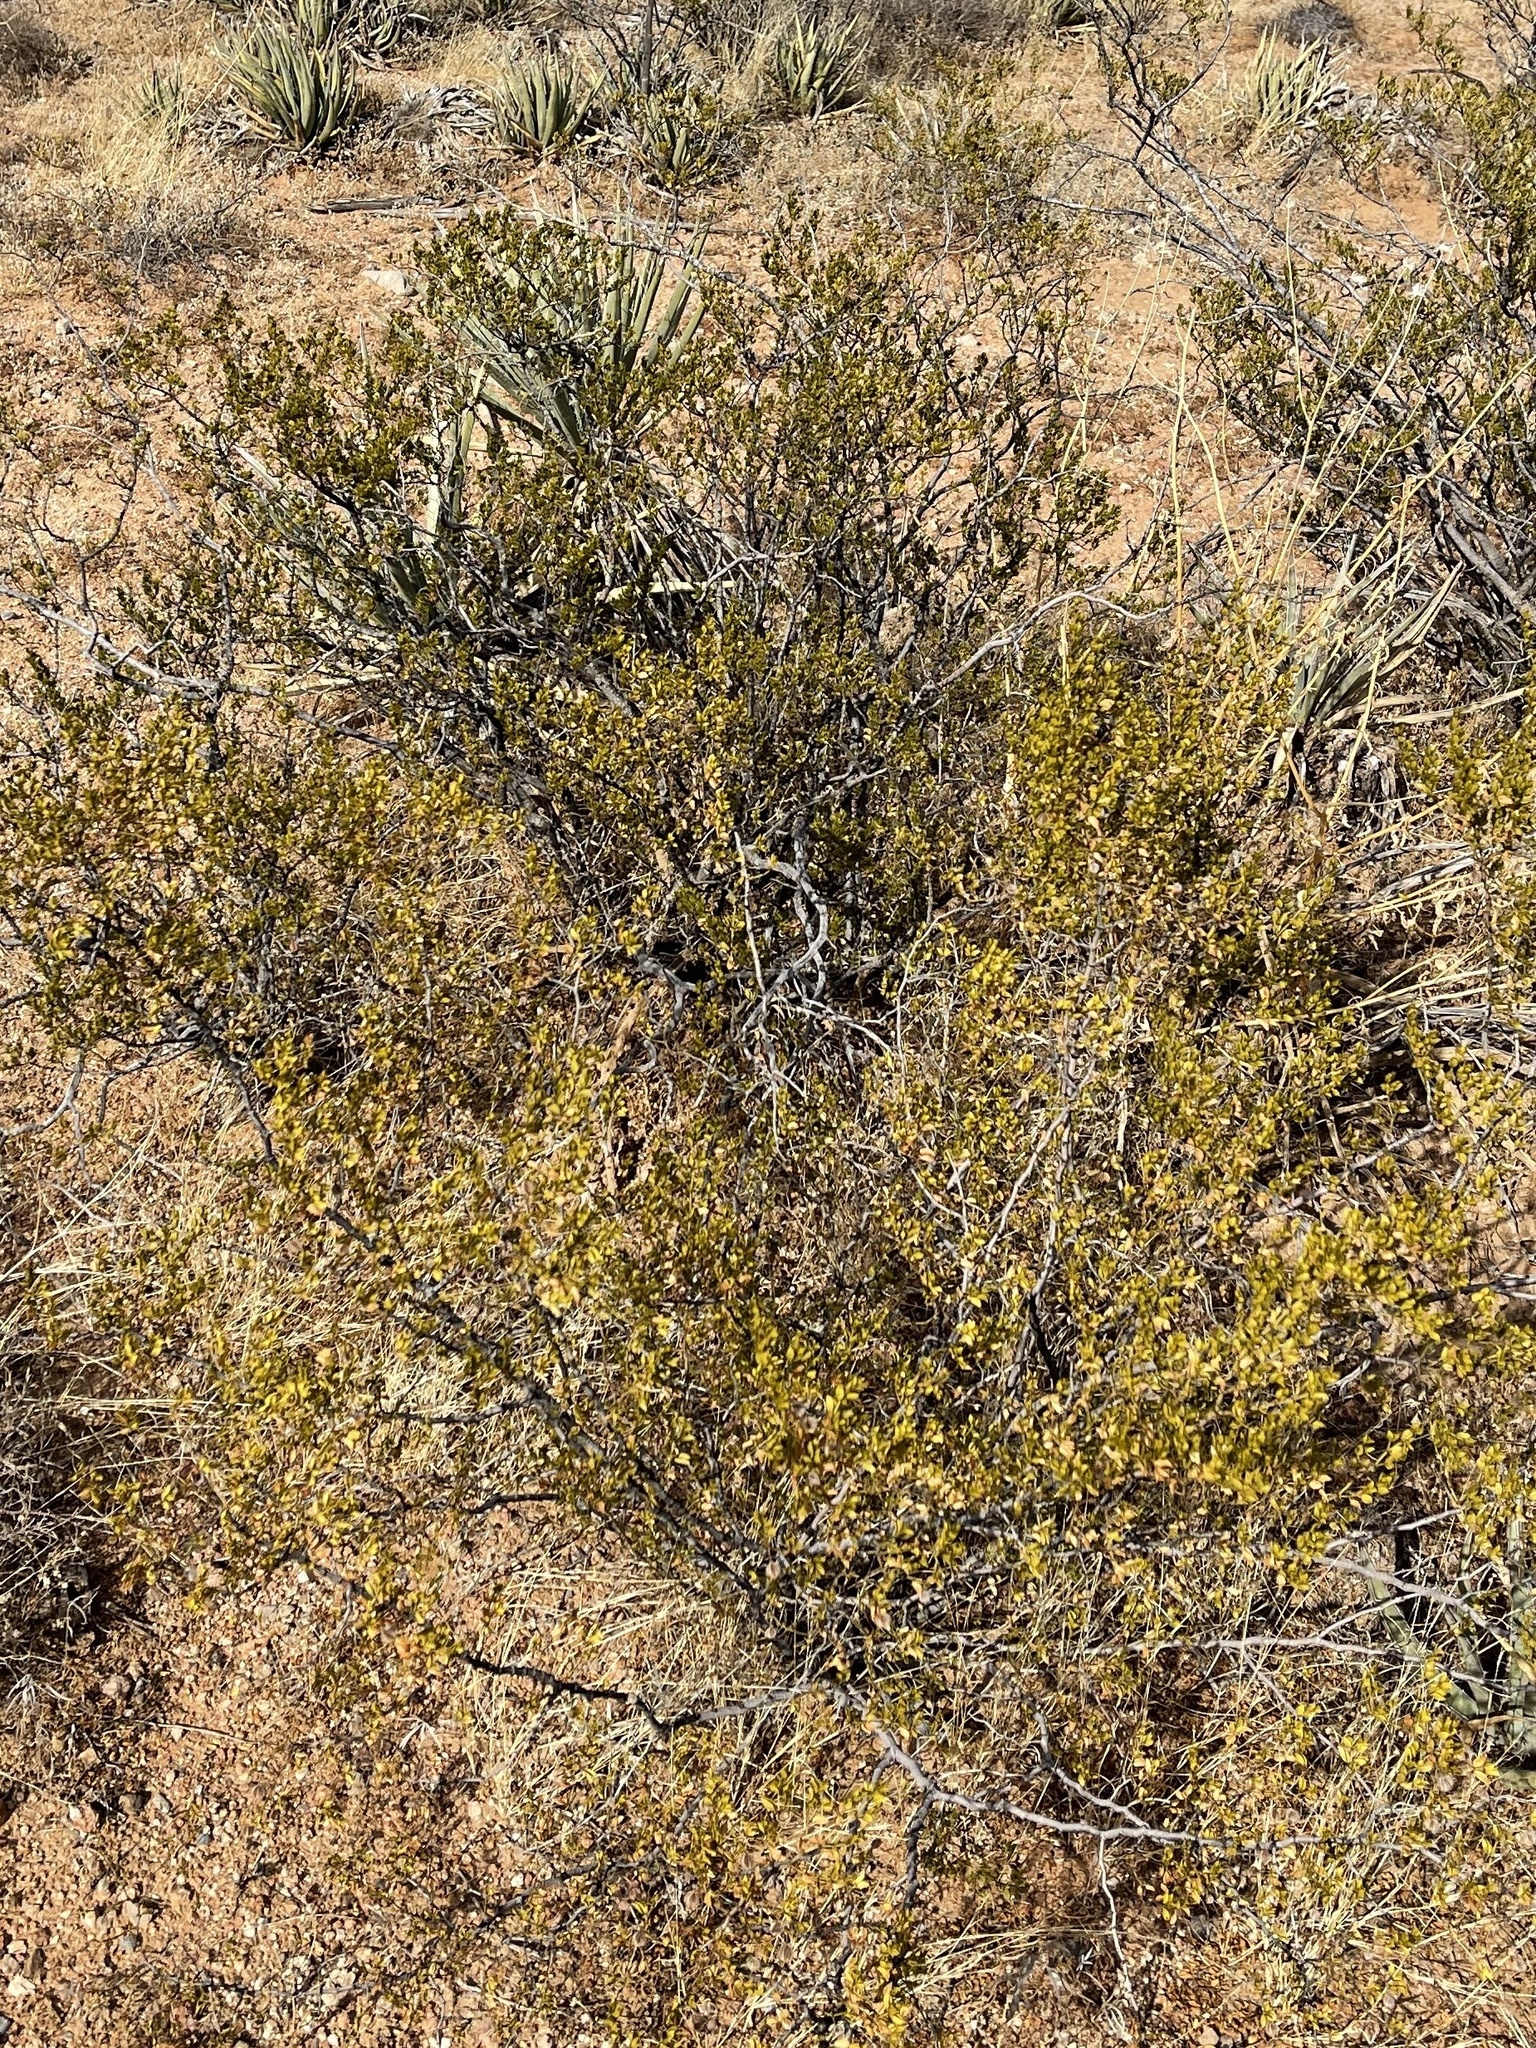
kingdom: Plantae
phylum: Tracheophyta
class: Magnoliopsida
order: Zygophyllales
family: Zygophyllaceae
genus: Larrea
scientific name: Larrea tridentata
